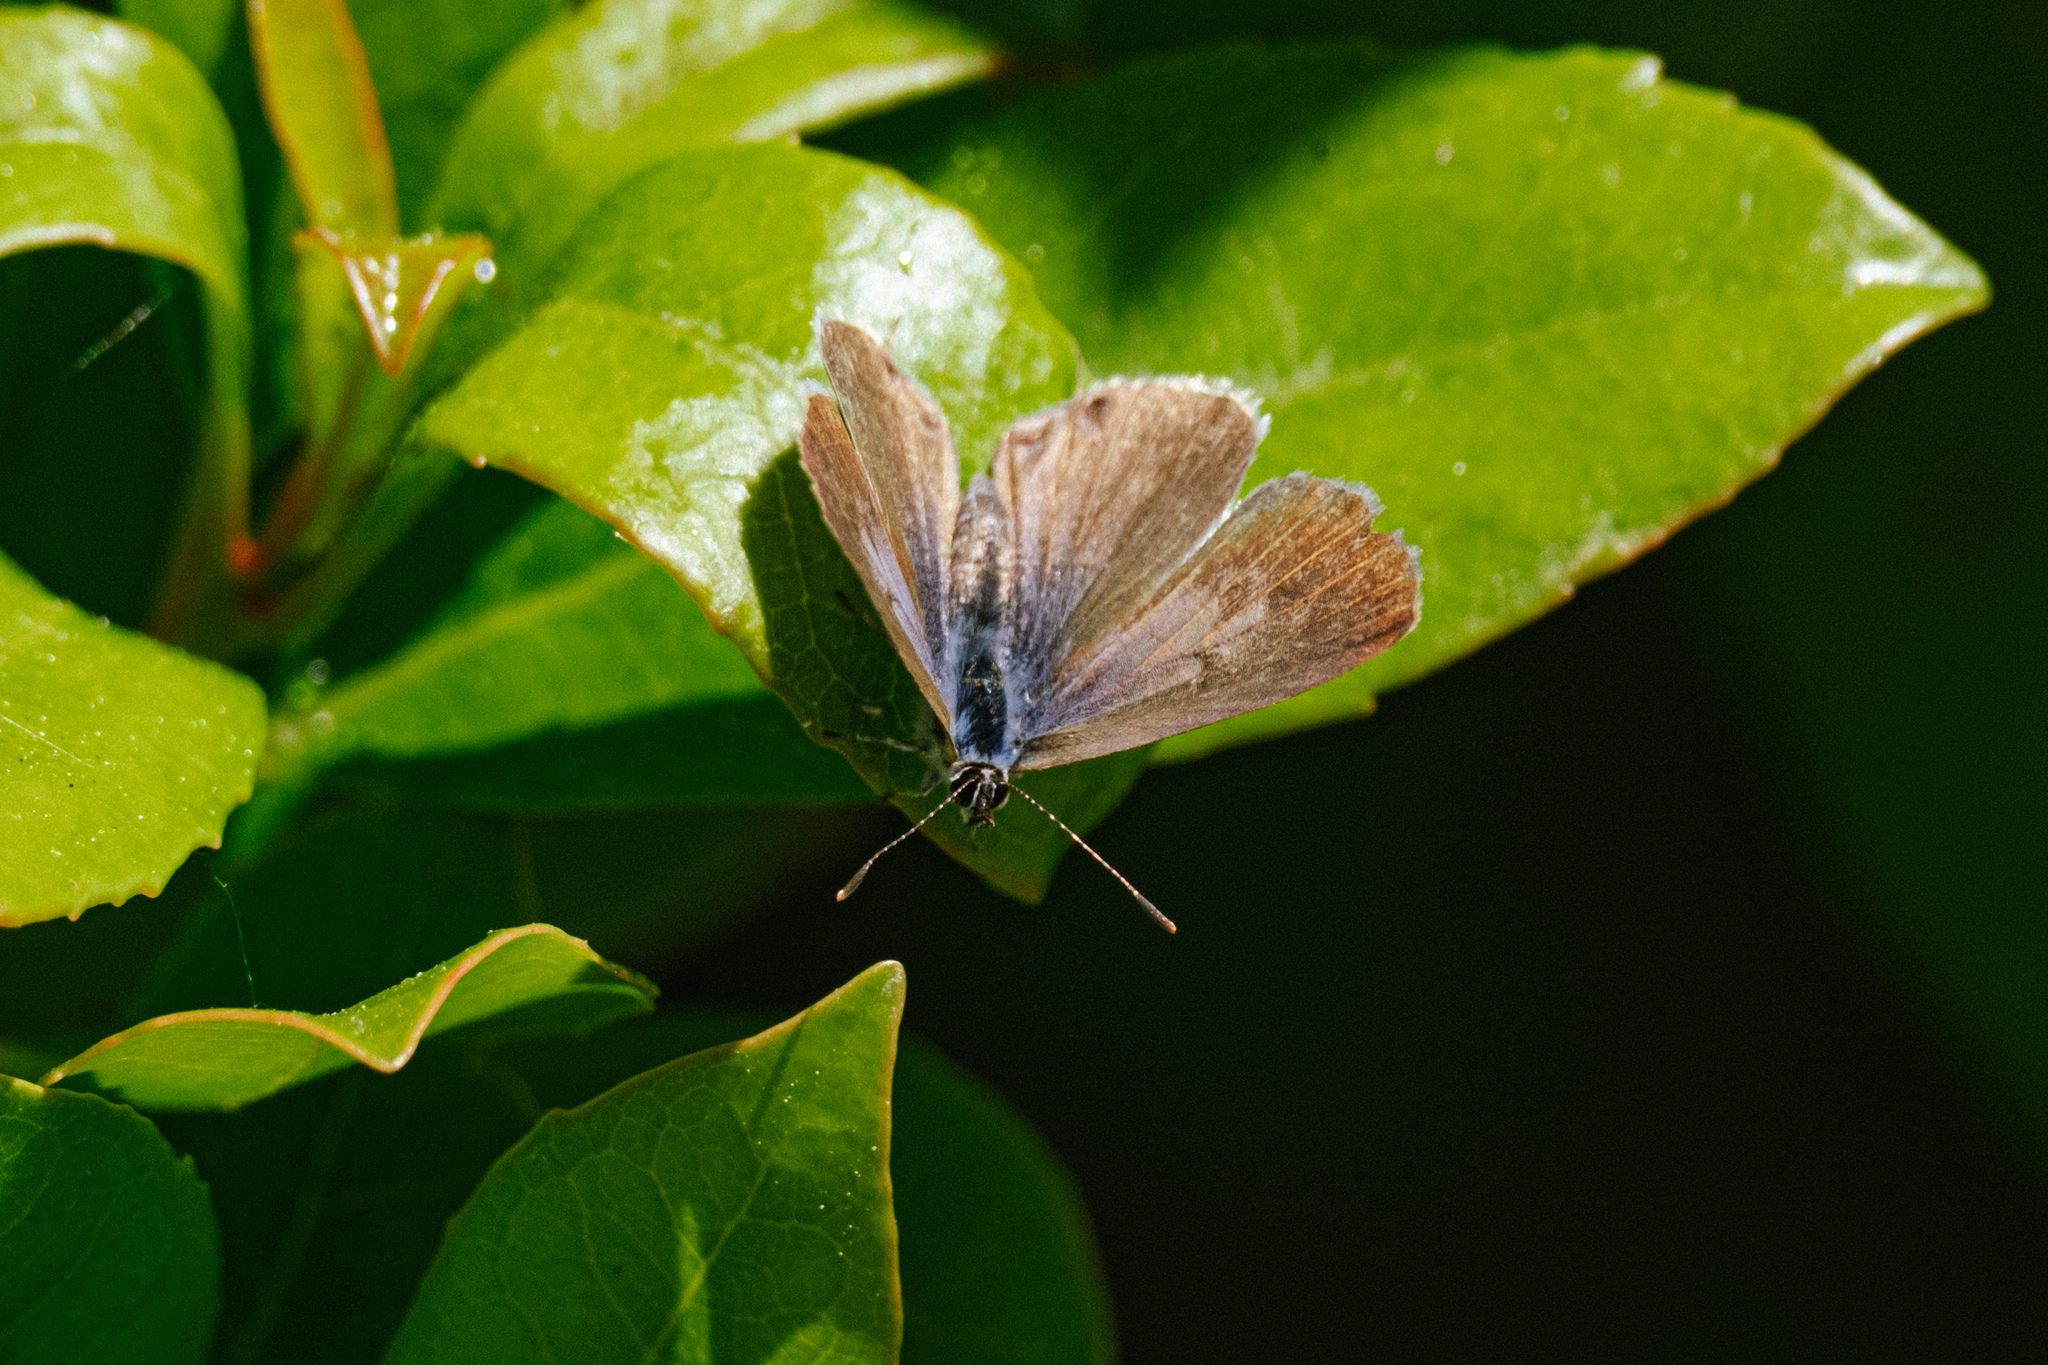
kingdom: Animalia
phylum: Arthropoda
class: Insecta
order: Lepidoptera
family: Lycaenidae
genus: Leptotes
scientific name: Leptotes pirithous
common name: Lang's short-tailed blue
